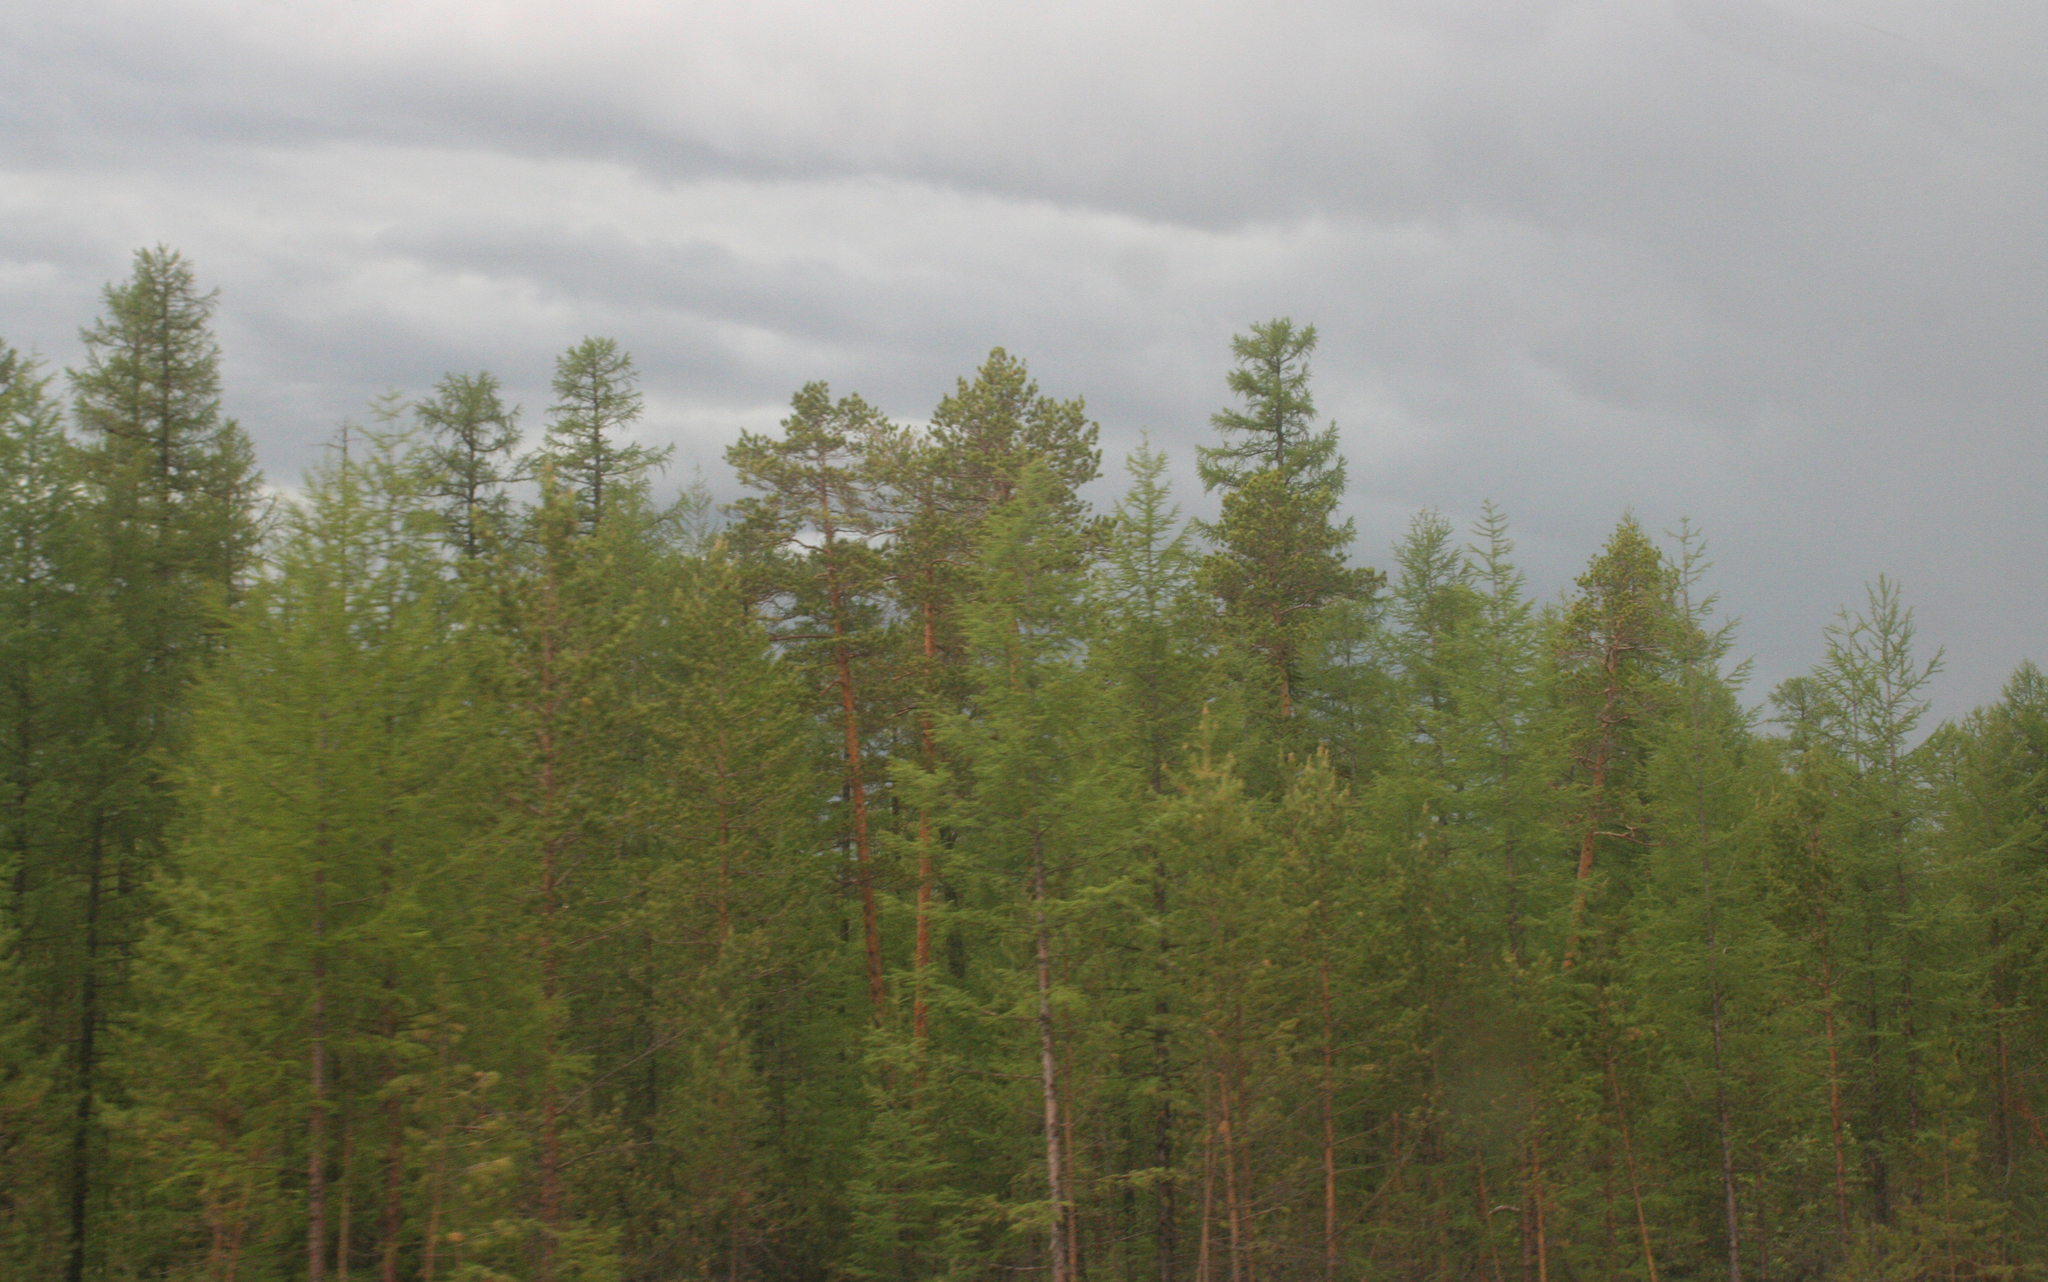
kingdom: Plantae
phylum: Tracheophyta
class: Pinopsida
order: Pinales
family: Pinaceae
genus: Pinus
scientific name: Pinus sylvestris
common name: Scots pine
